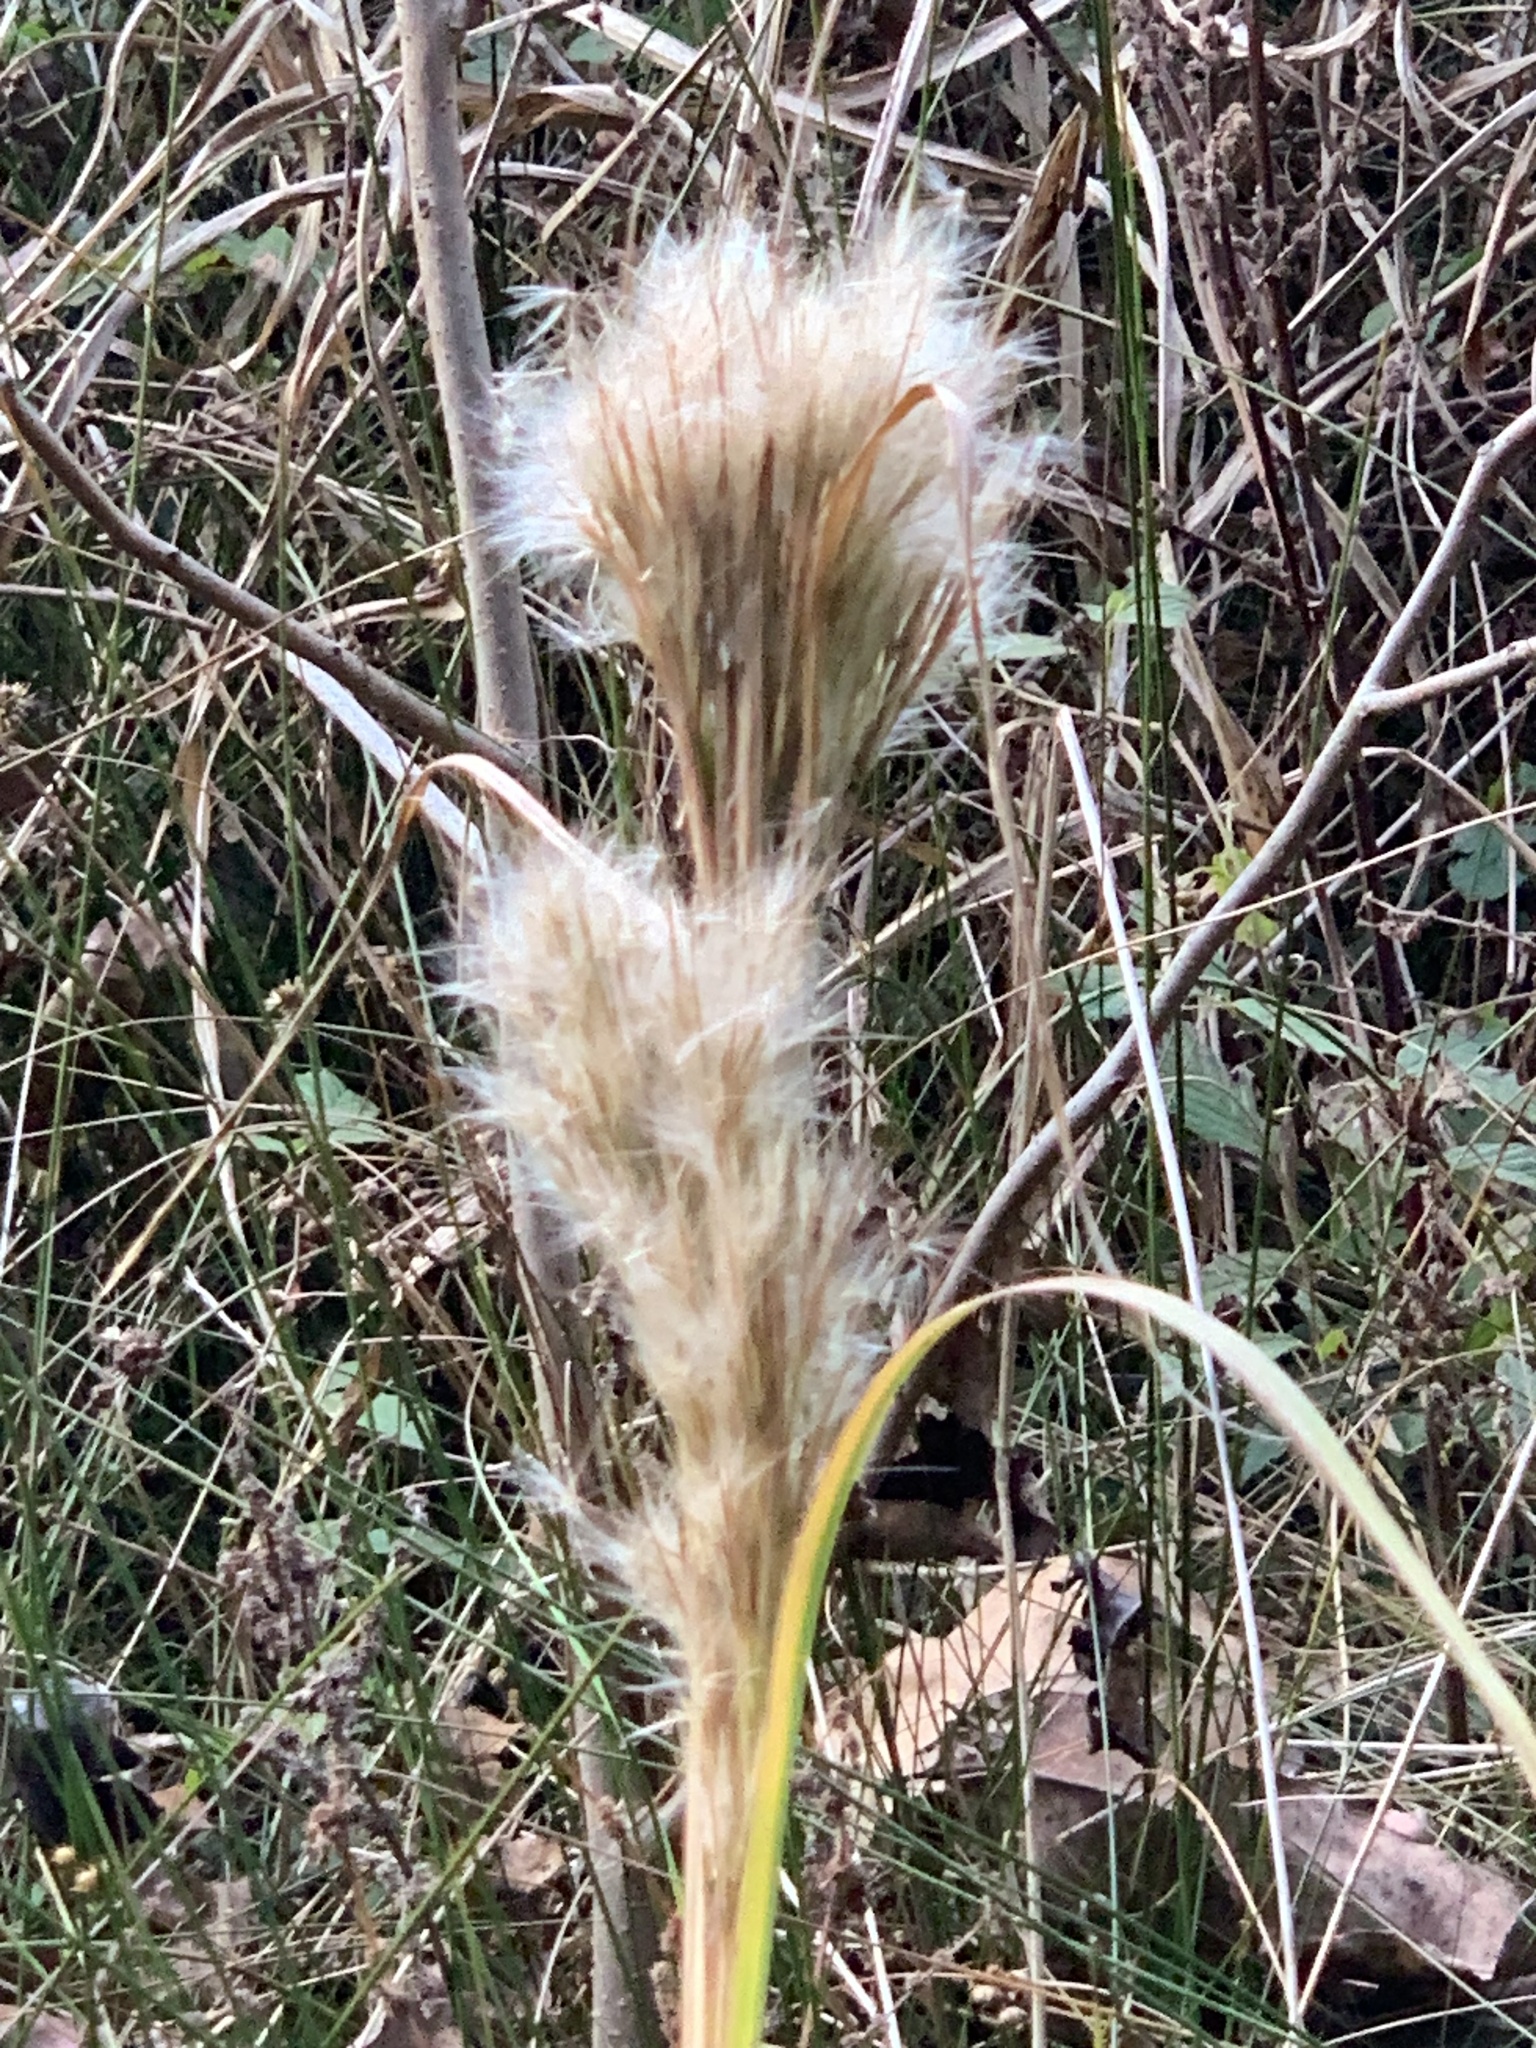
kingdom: Plantae
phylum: Tracheophyta
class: Liliopsida
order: Poales
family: Poaceae
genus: Andropogon
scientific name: Andropogon tenuispatheus
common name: Bushy bluestem
